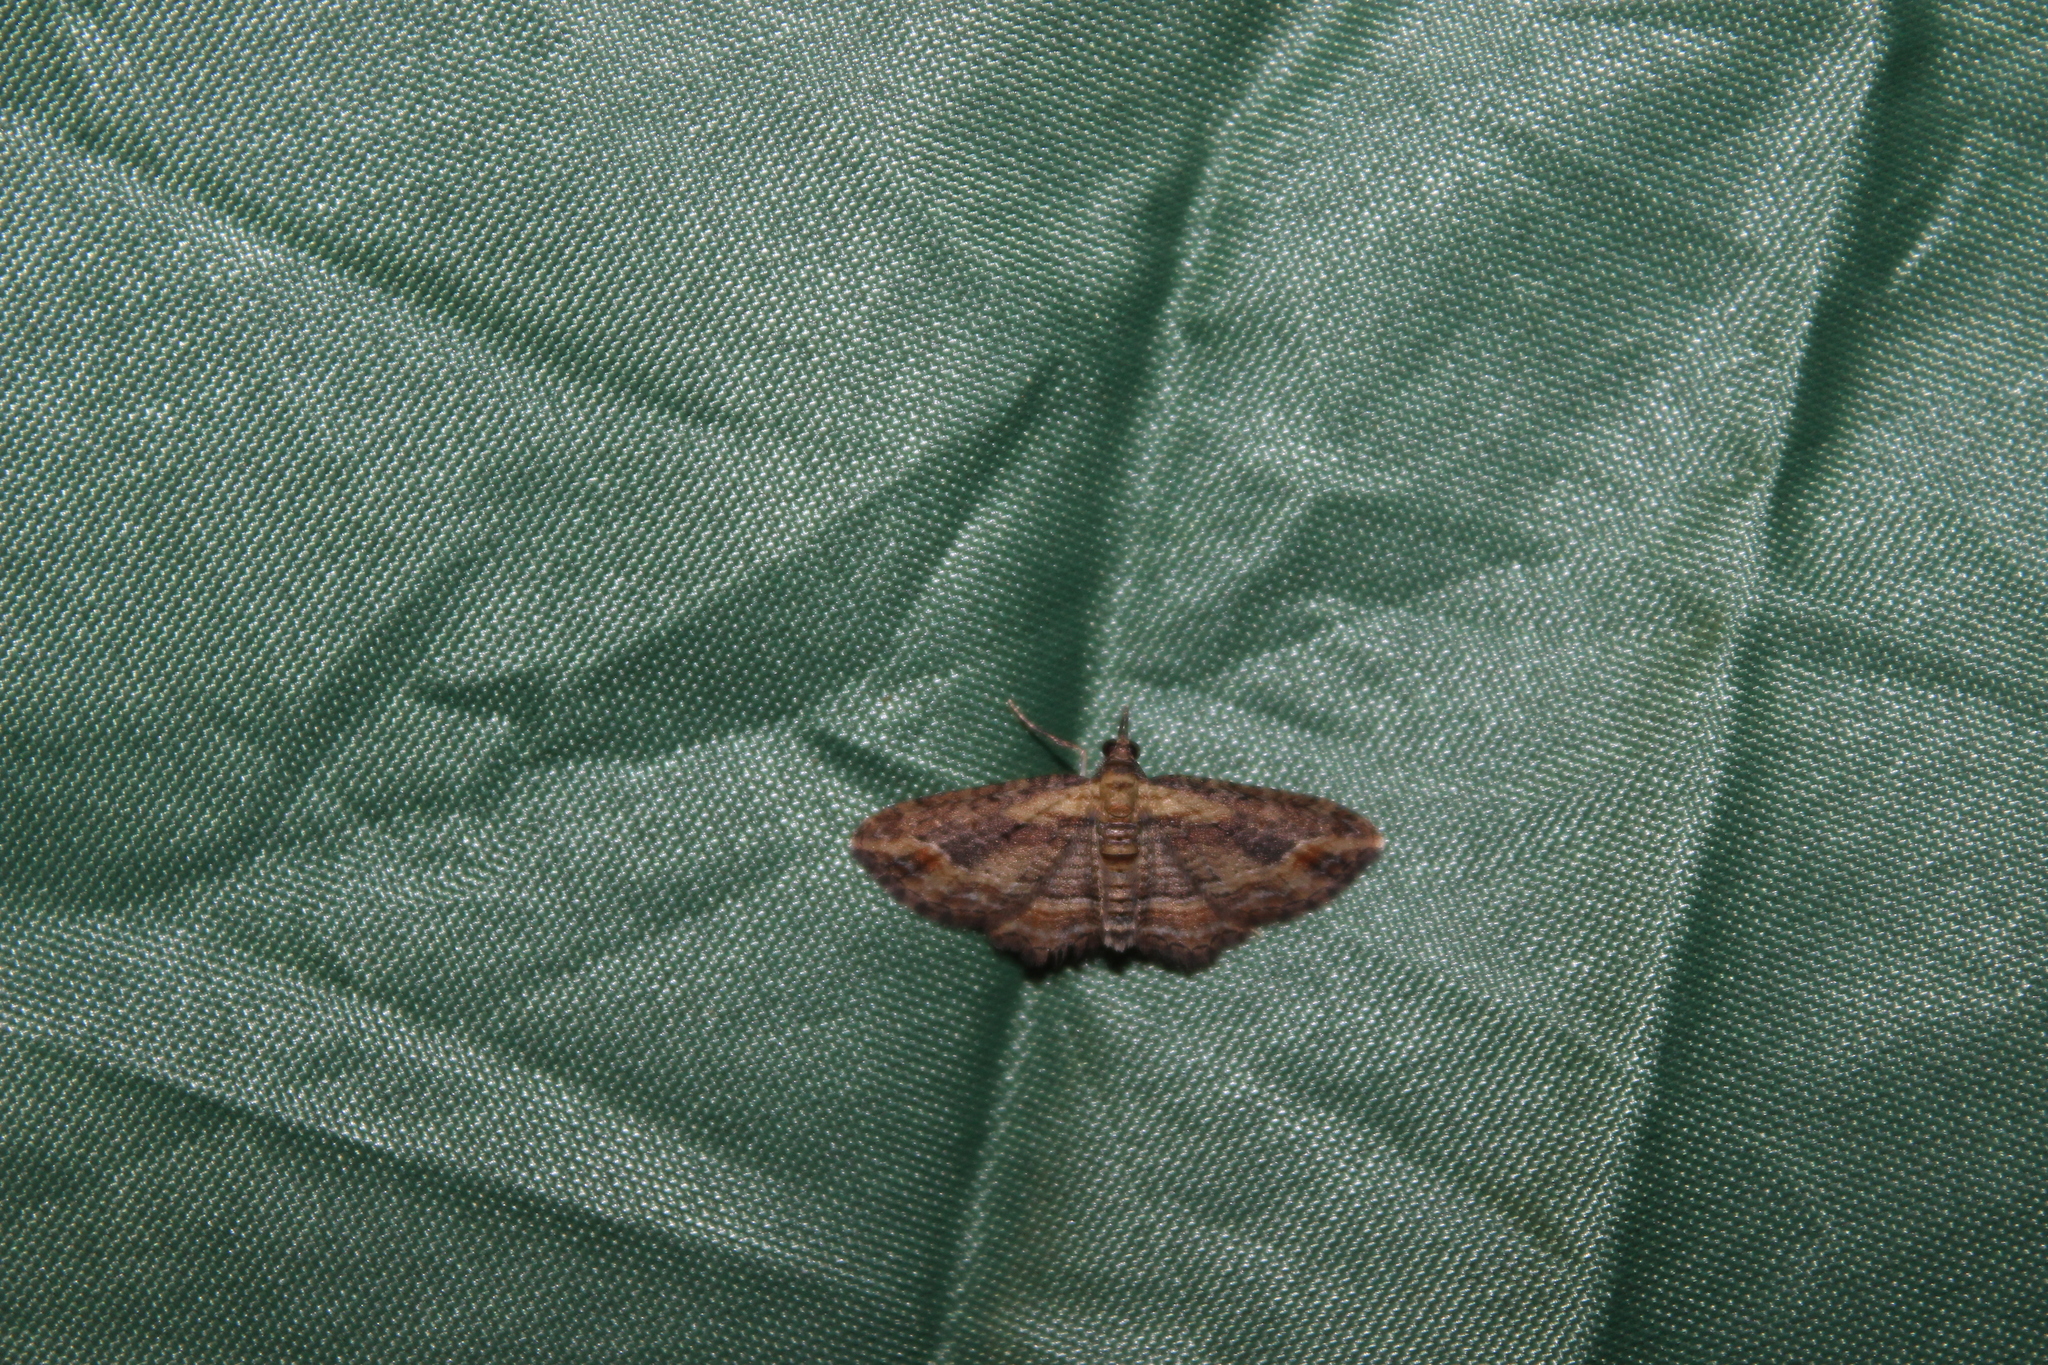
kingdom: Animalia
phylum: Arthropoda
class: Insecta
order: Lepidoptera
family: Geometridae
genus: Chloroclystis
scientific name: Chloroclystis filata
